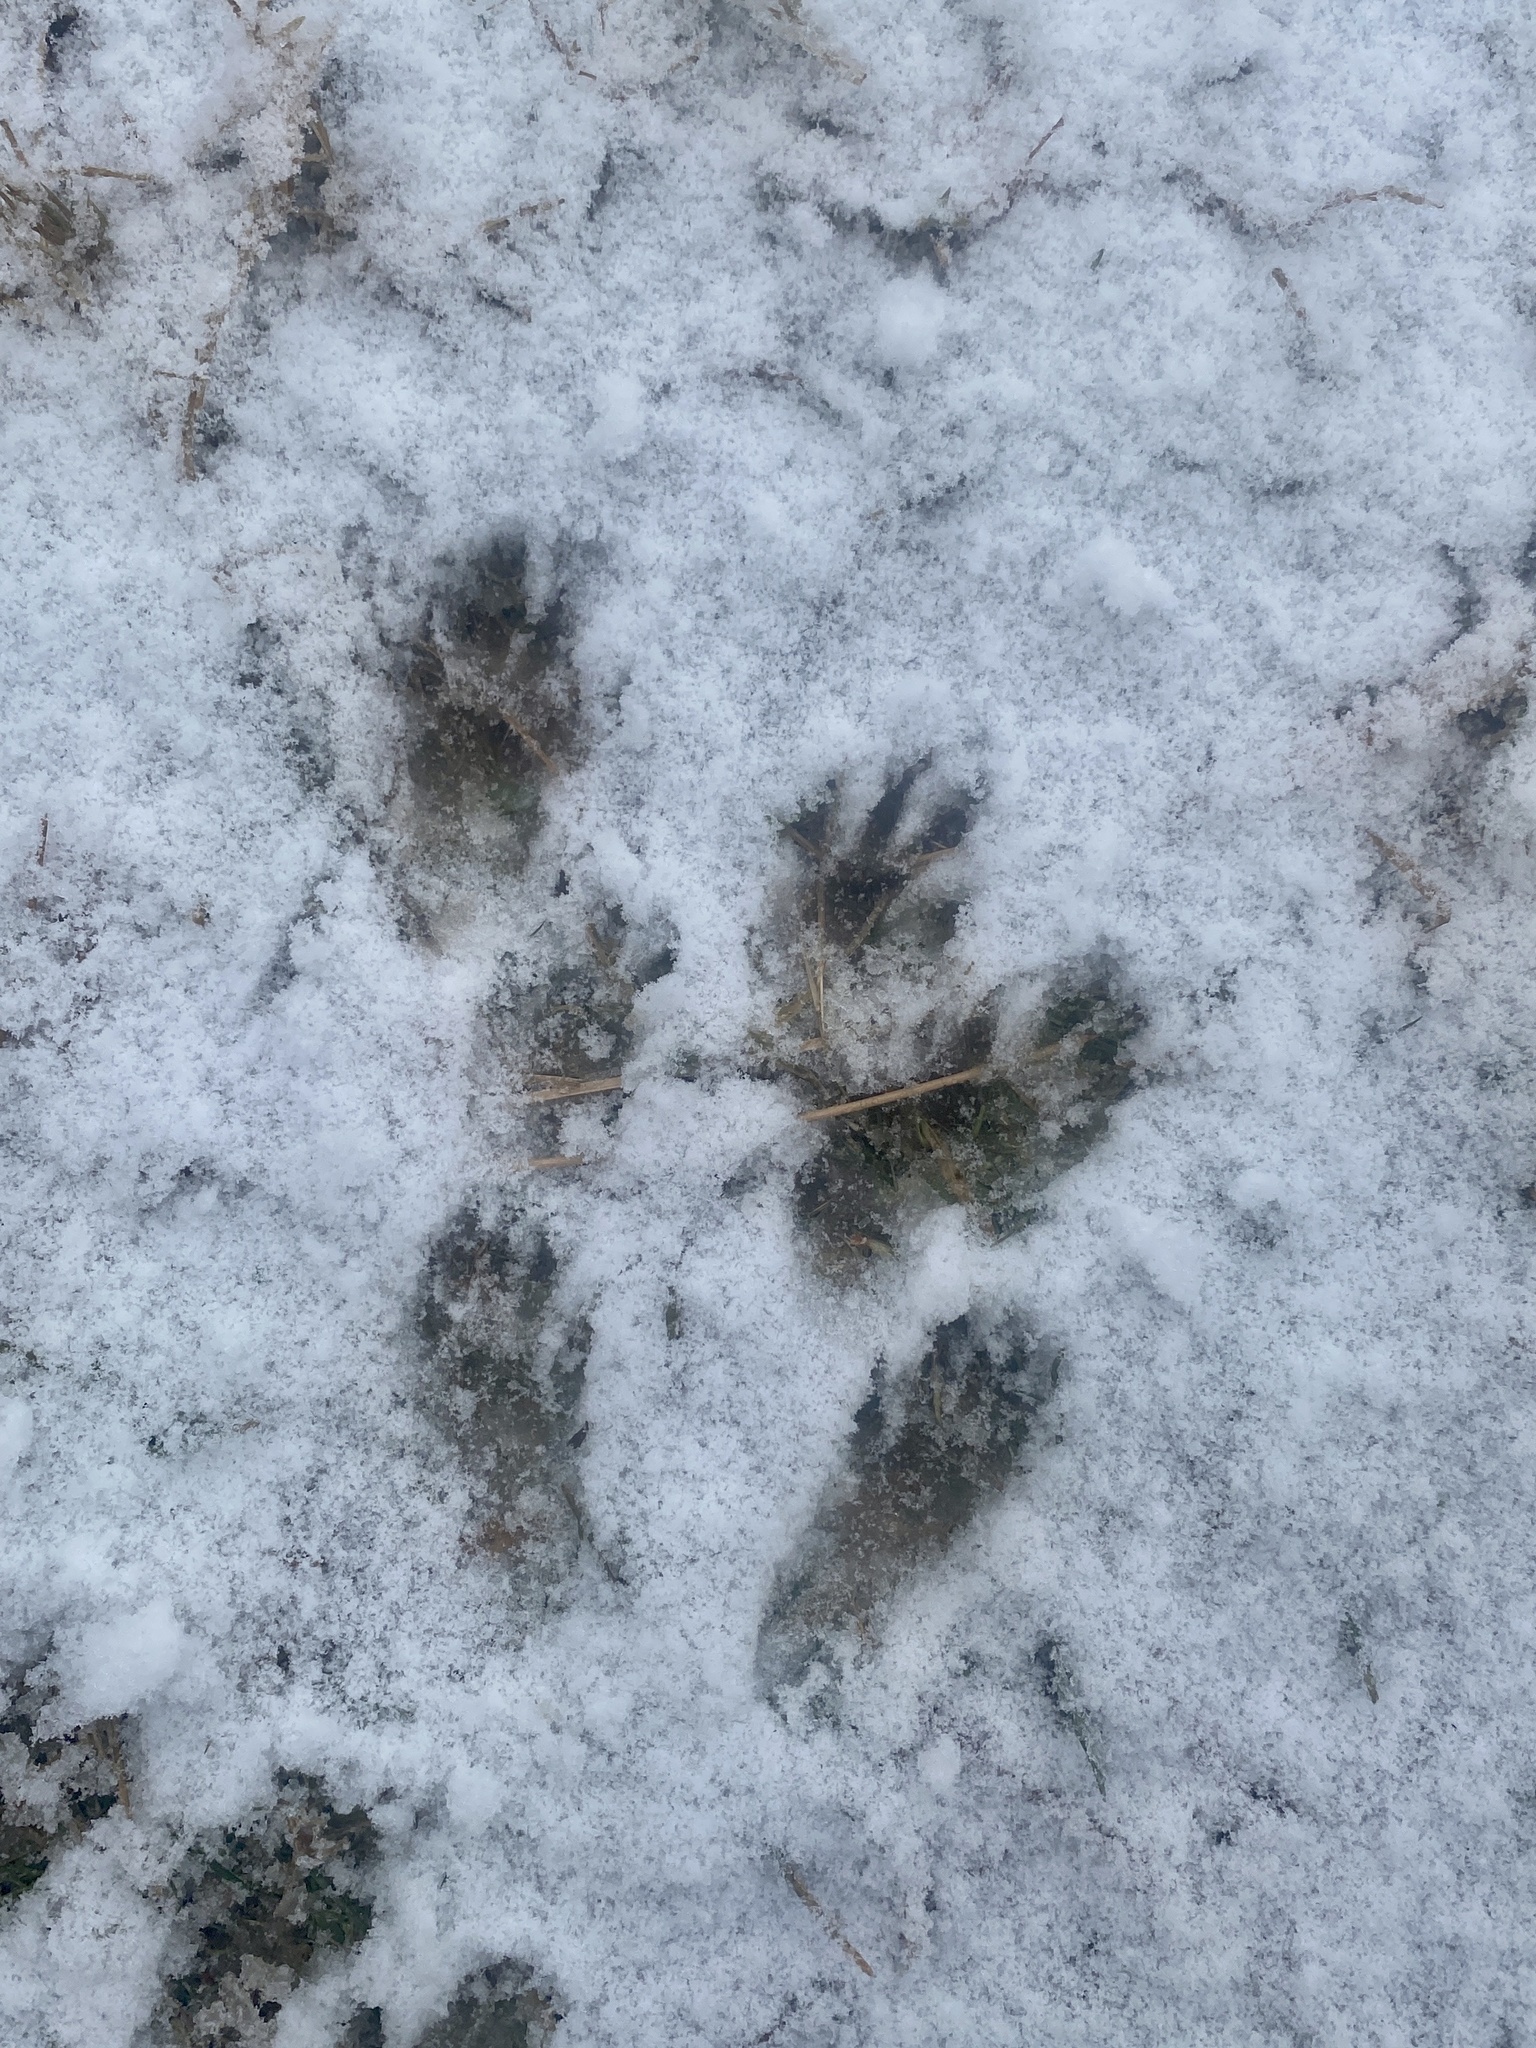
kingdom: Animalia
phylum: Chordata
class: Mammalia
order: Rodentia
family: Sciuridae
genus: Sciurus
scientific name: Sciurus carolinensis
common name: Eastern gray squirrel
